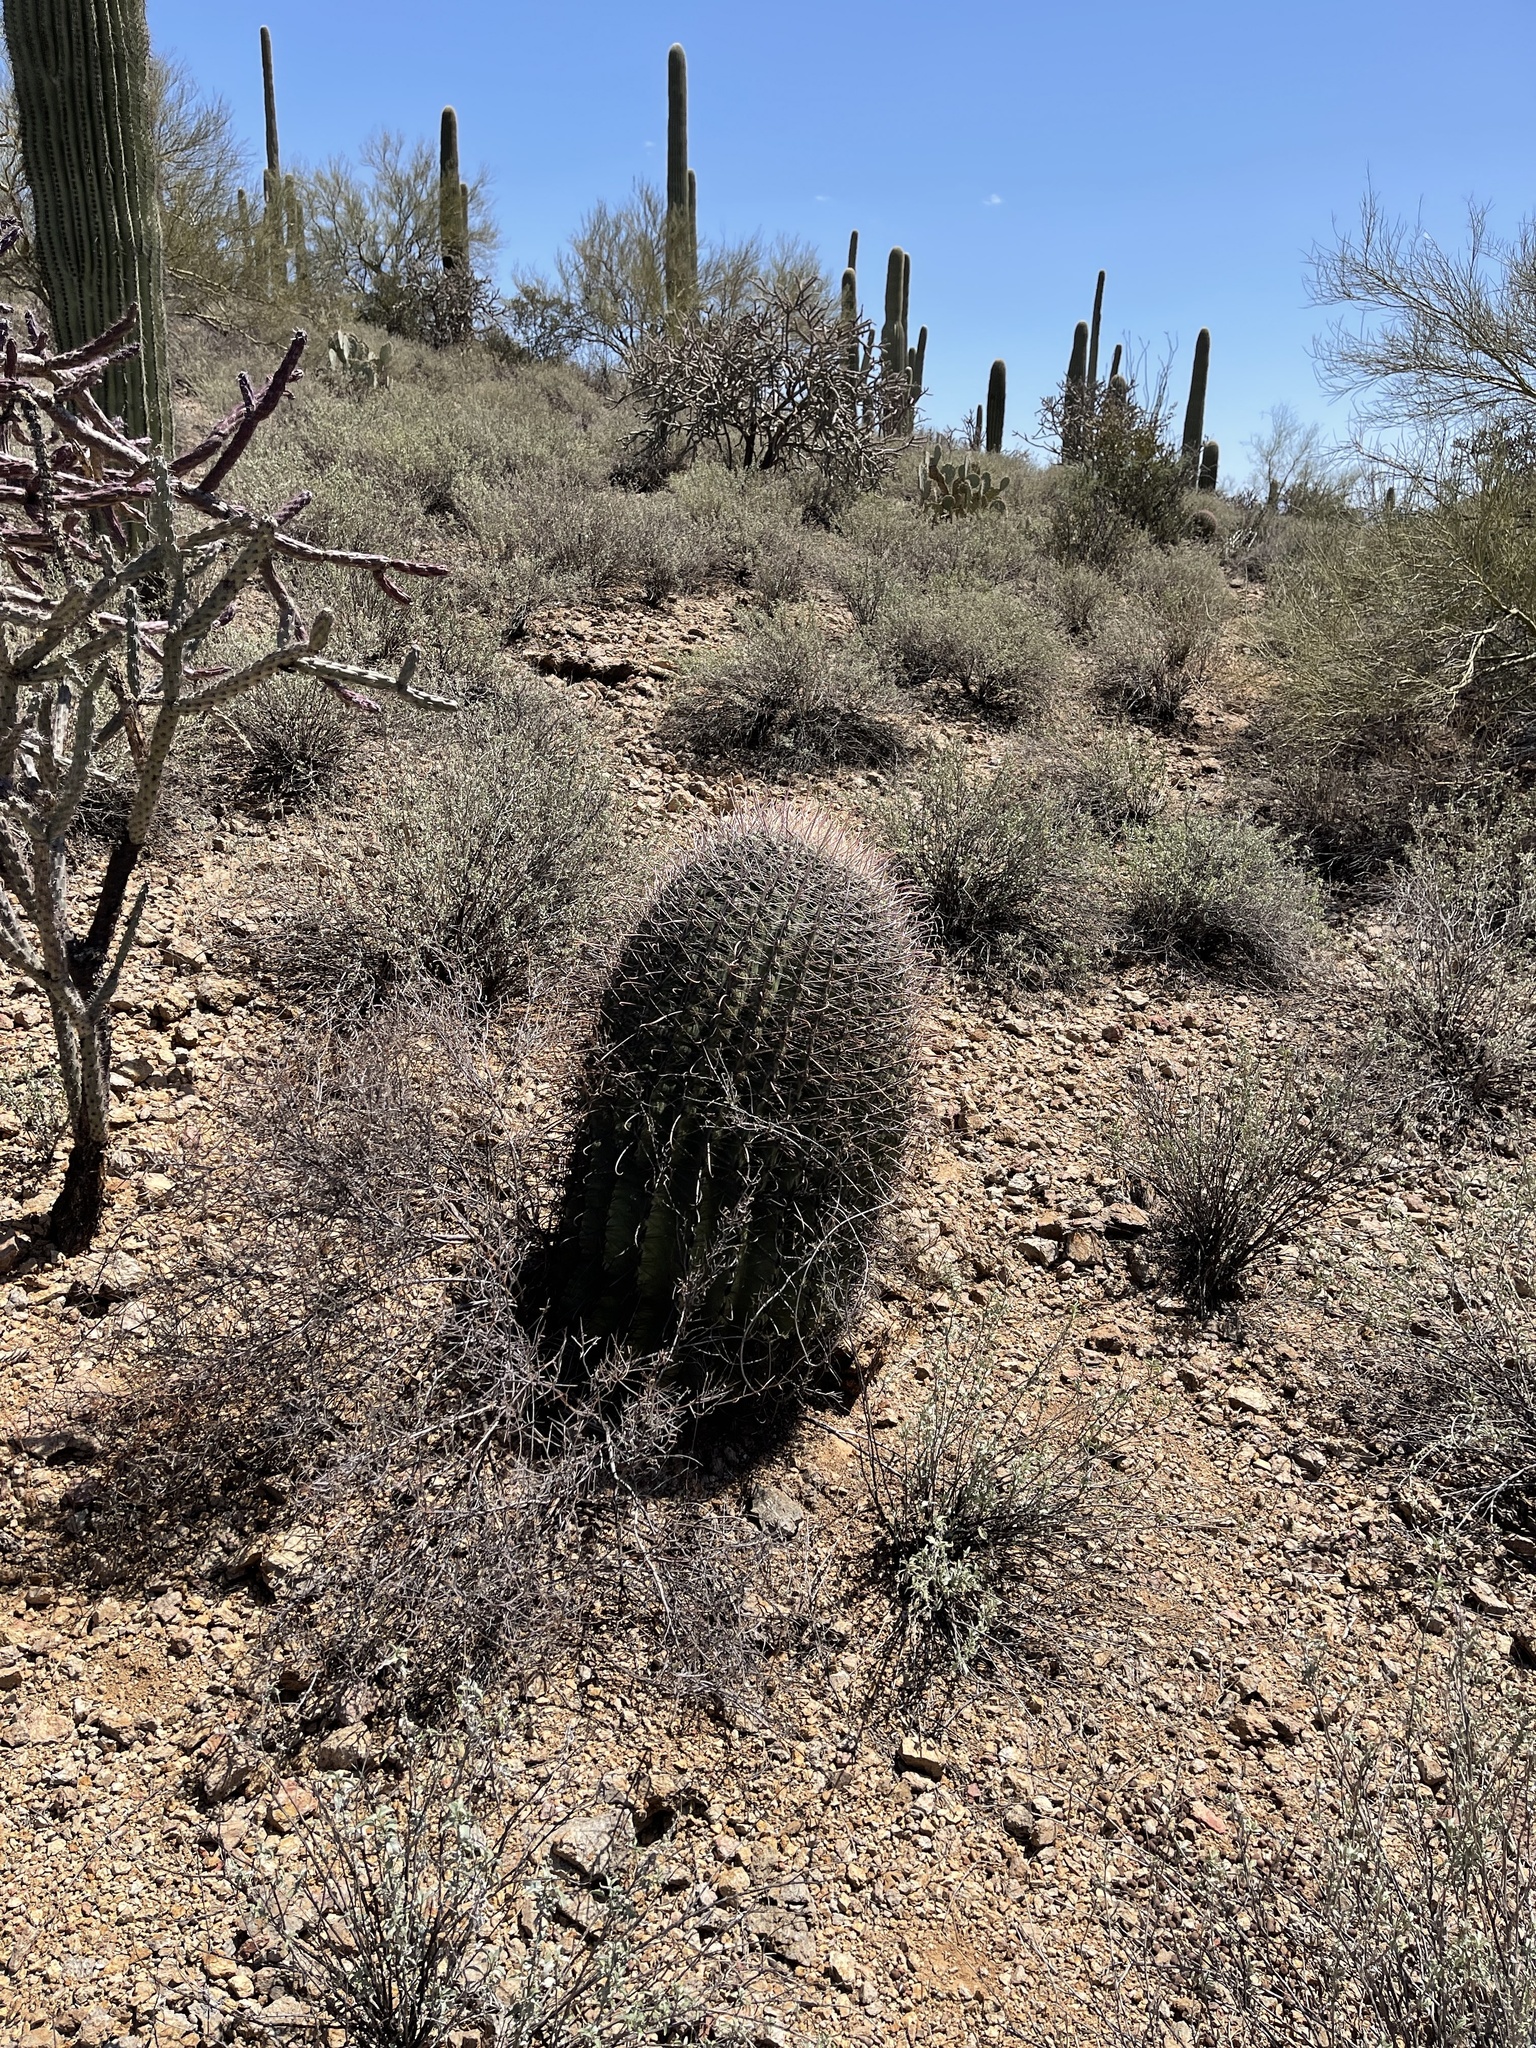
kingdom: Plantae
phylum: Tracheophyta
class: Magnoliopsida
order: Caryophyllales
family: Cactaceae
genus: Ferocactus
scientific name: Ferocactus wislizeni
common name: Candy barrel cactus
